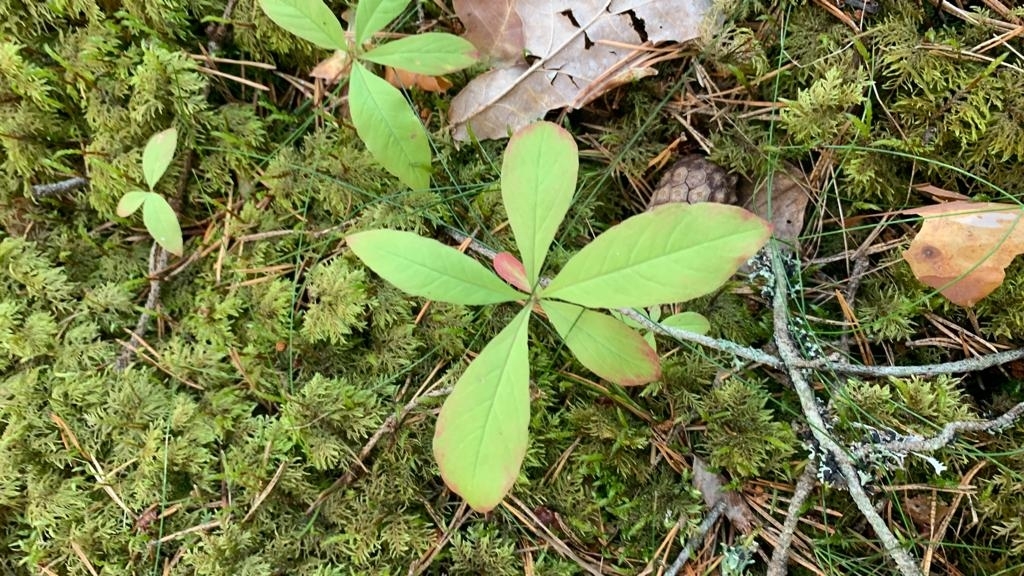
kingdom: Plantae
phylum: Tracheophyta
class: Magnoliopsida
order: Ericales
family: Primulaceae
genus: Lysimachia
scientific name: Lysimachia europaea
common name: Arctic starflower
